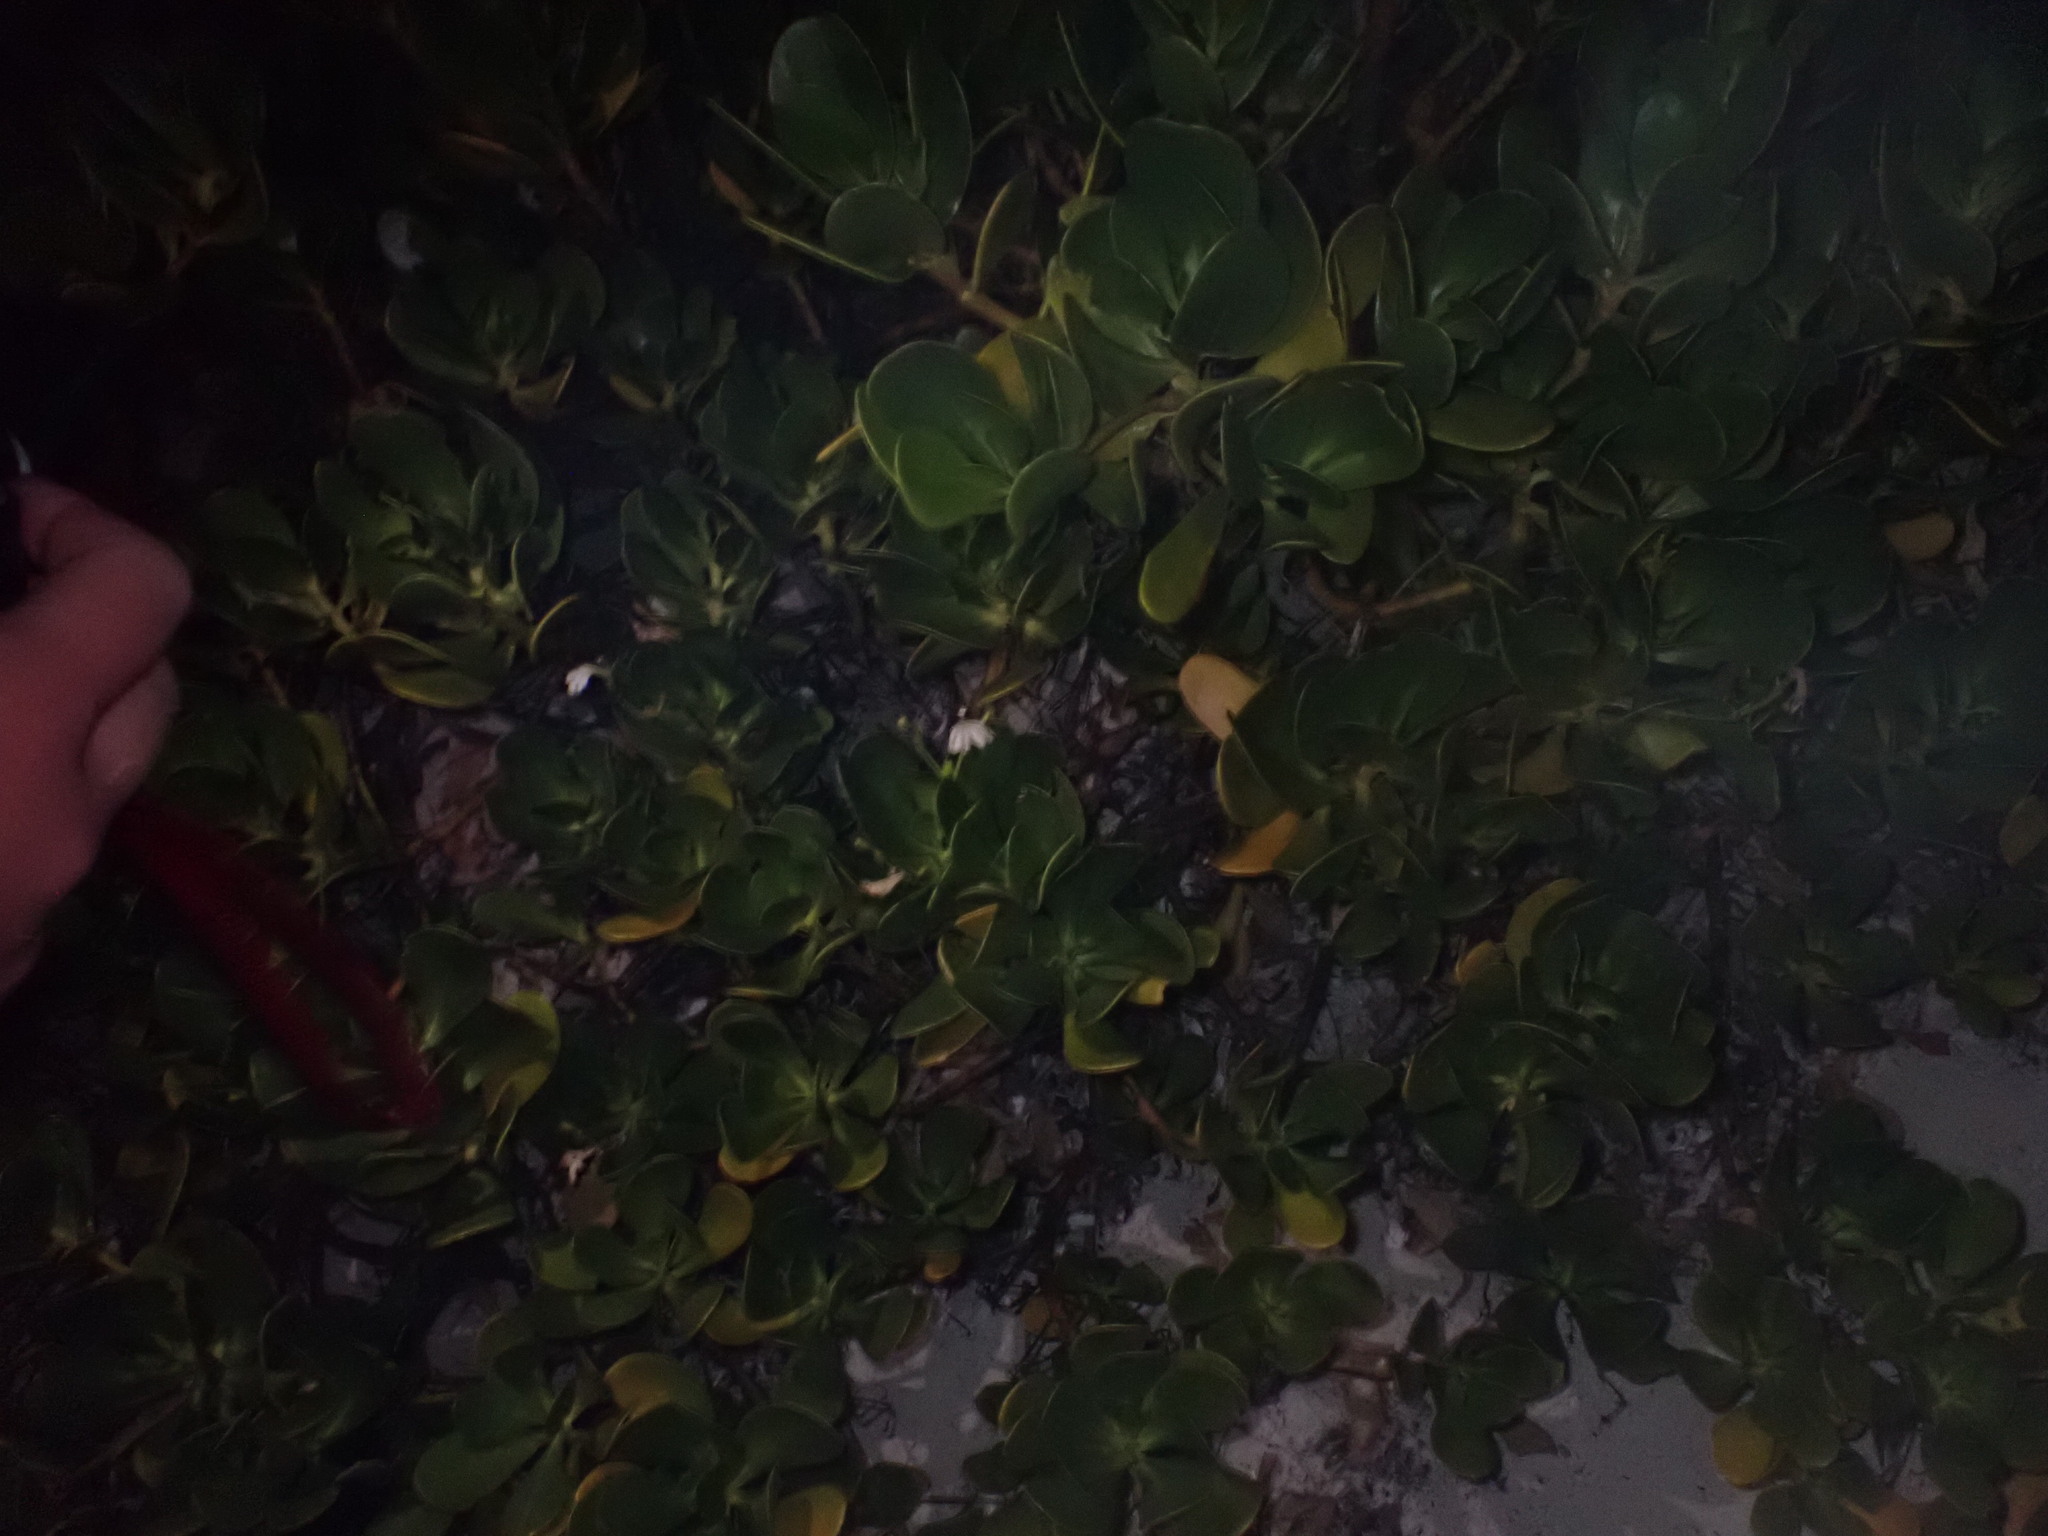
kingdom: Plantae
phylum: Tracheophyta
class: Magnoliopsida
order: Asterales
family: Goodeniaceae
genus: Scaevola
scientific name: Scaevola plumieri
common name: Gull feed
